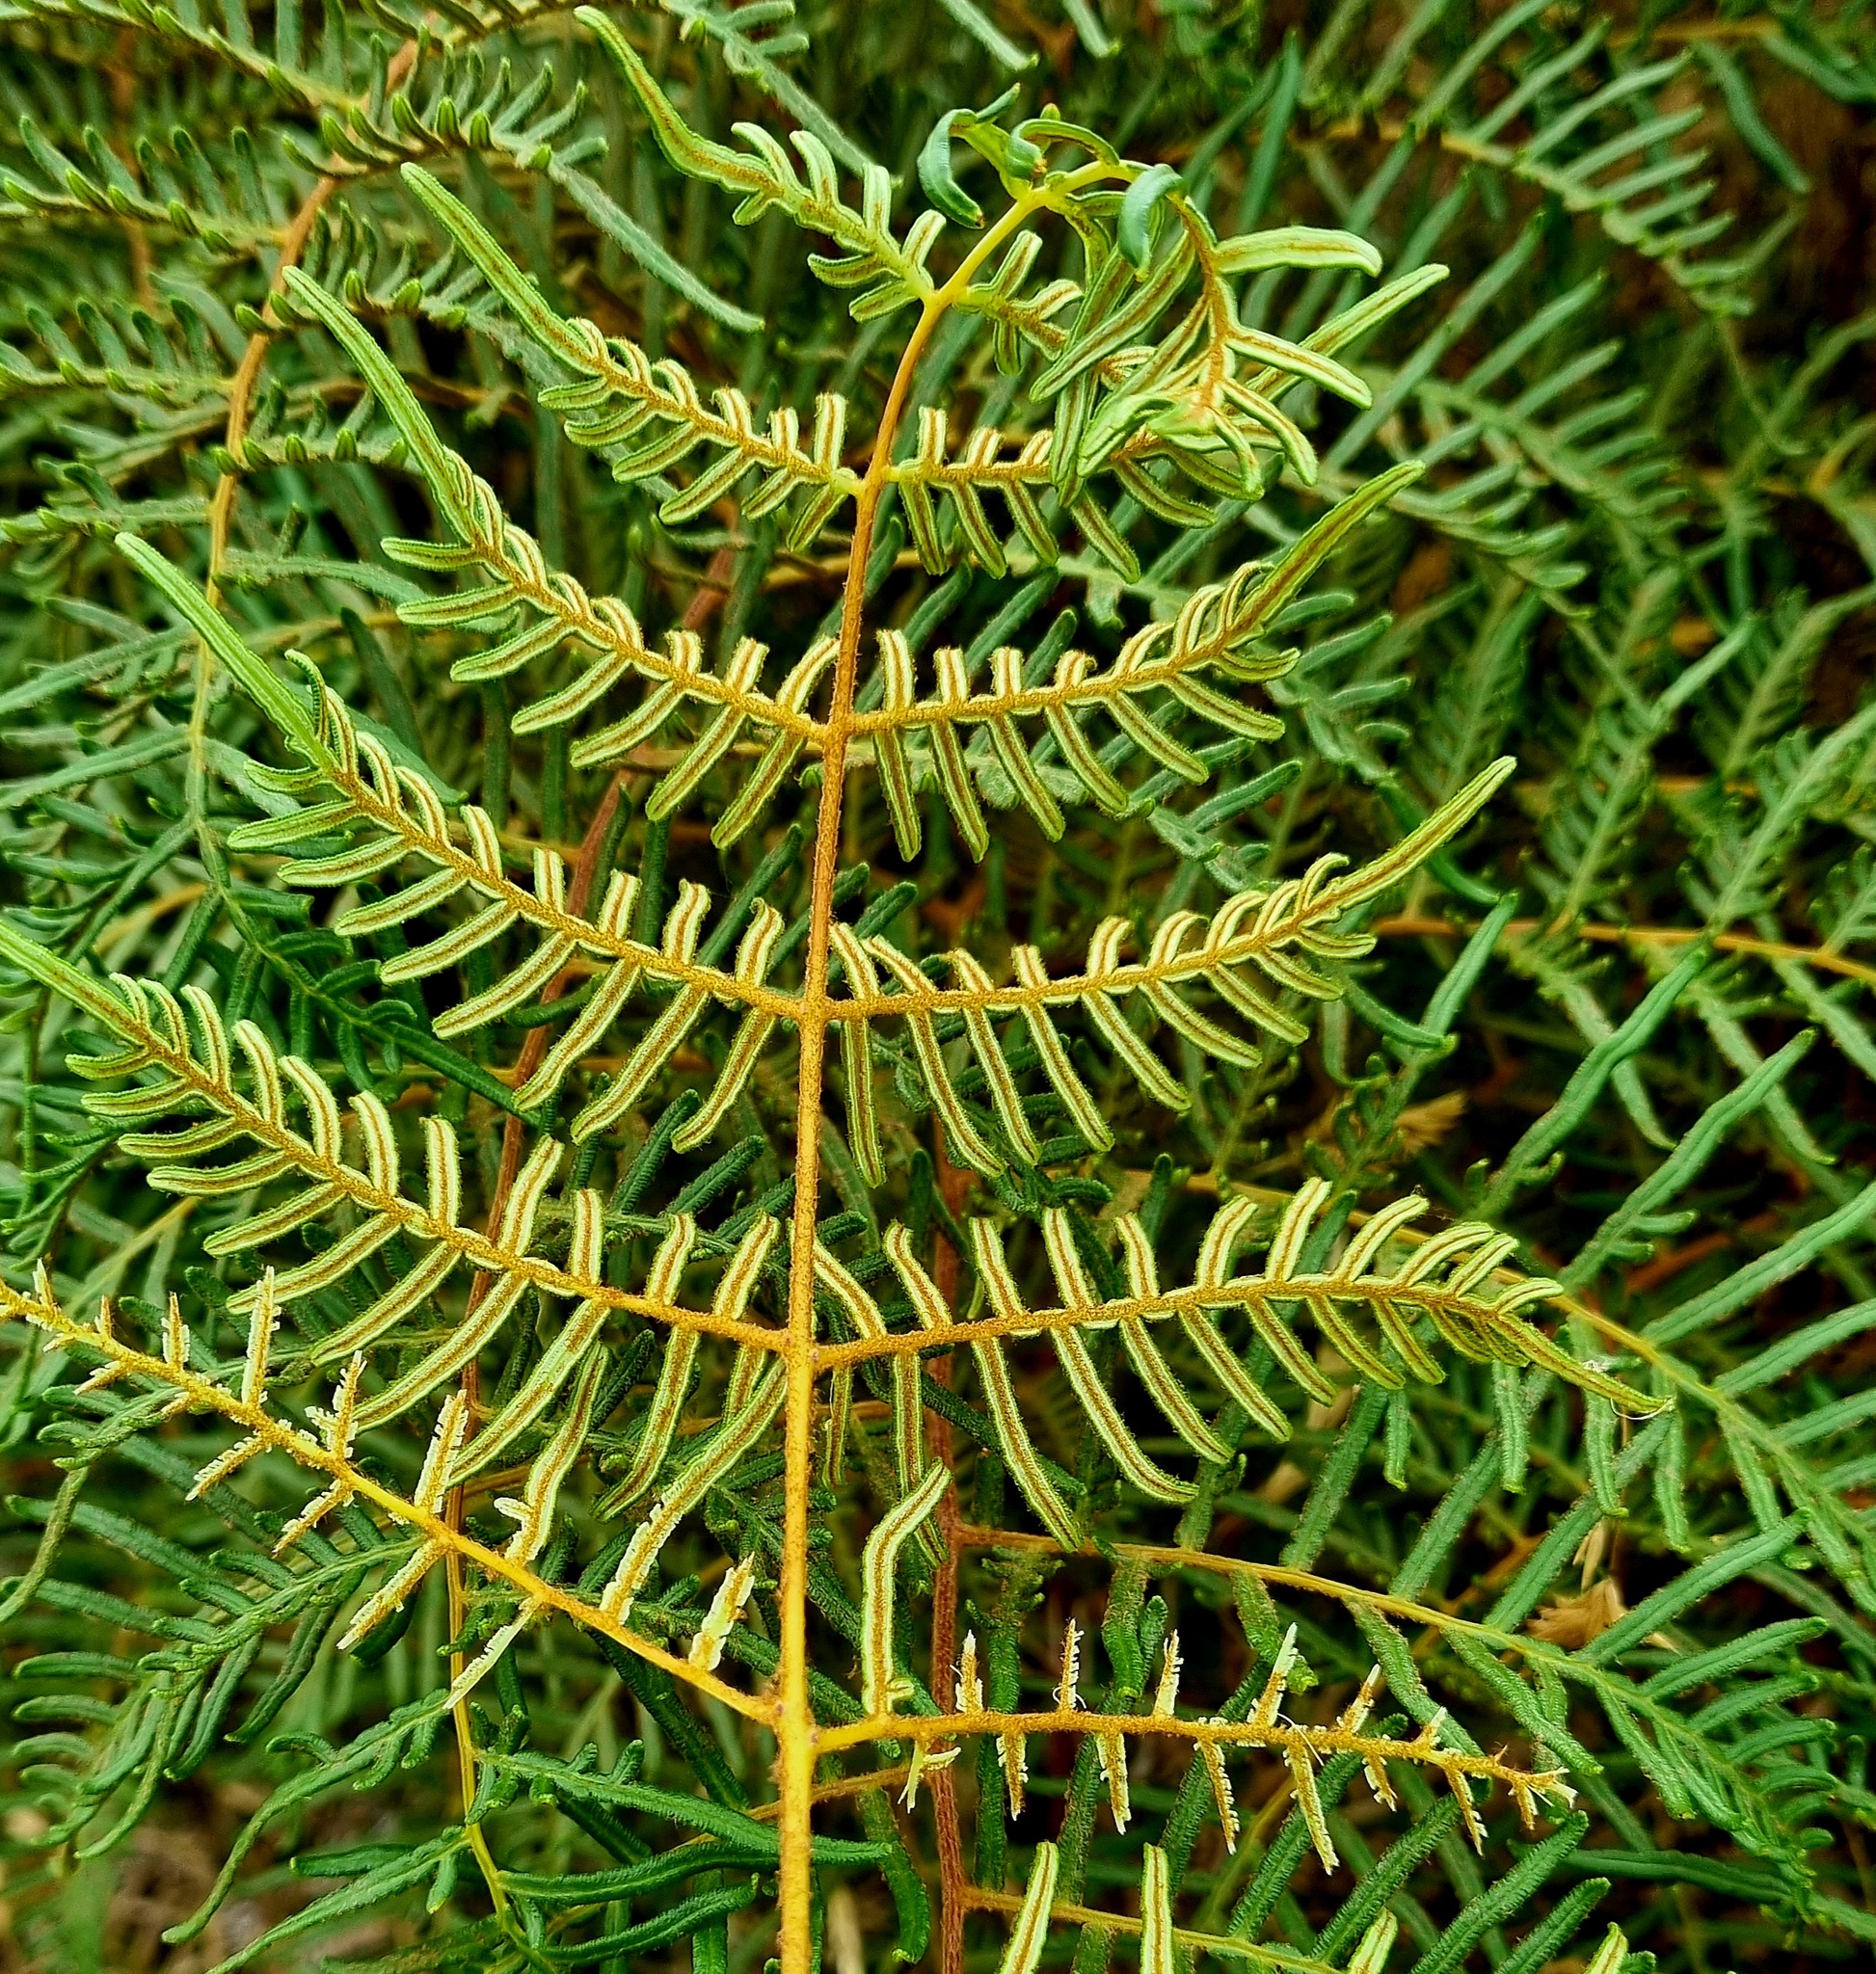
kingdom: Plantae
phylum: Tracheophyta
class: Polypodiopsida
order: Polypodiales
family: Dennstaedtiaceae
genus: Pteridium
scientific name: Pteridium esculentum
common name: Bracken fern
